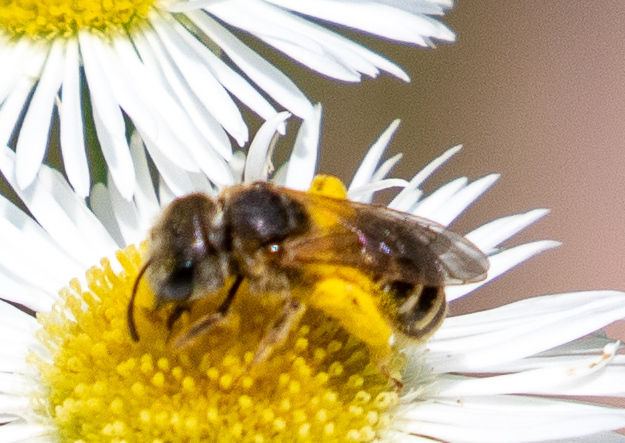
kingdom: Animalia
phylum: Arthropoda
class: Insecta
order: Hymenoptera
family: Halictidae
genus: Halictus
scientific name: Halictus ligatus
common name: Ligated furrow bee
